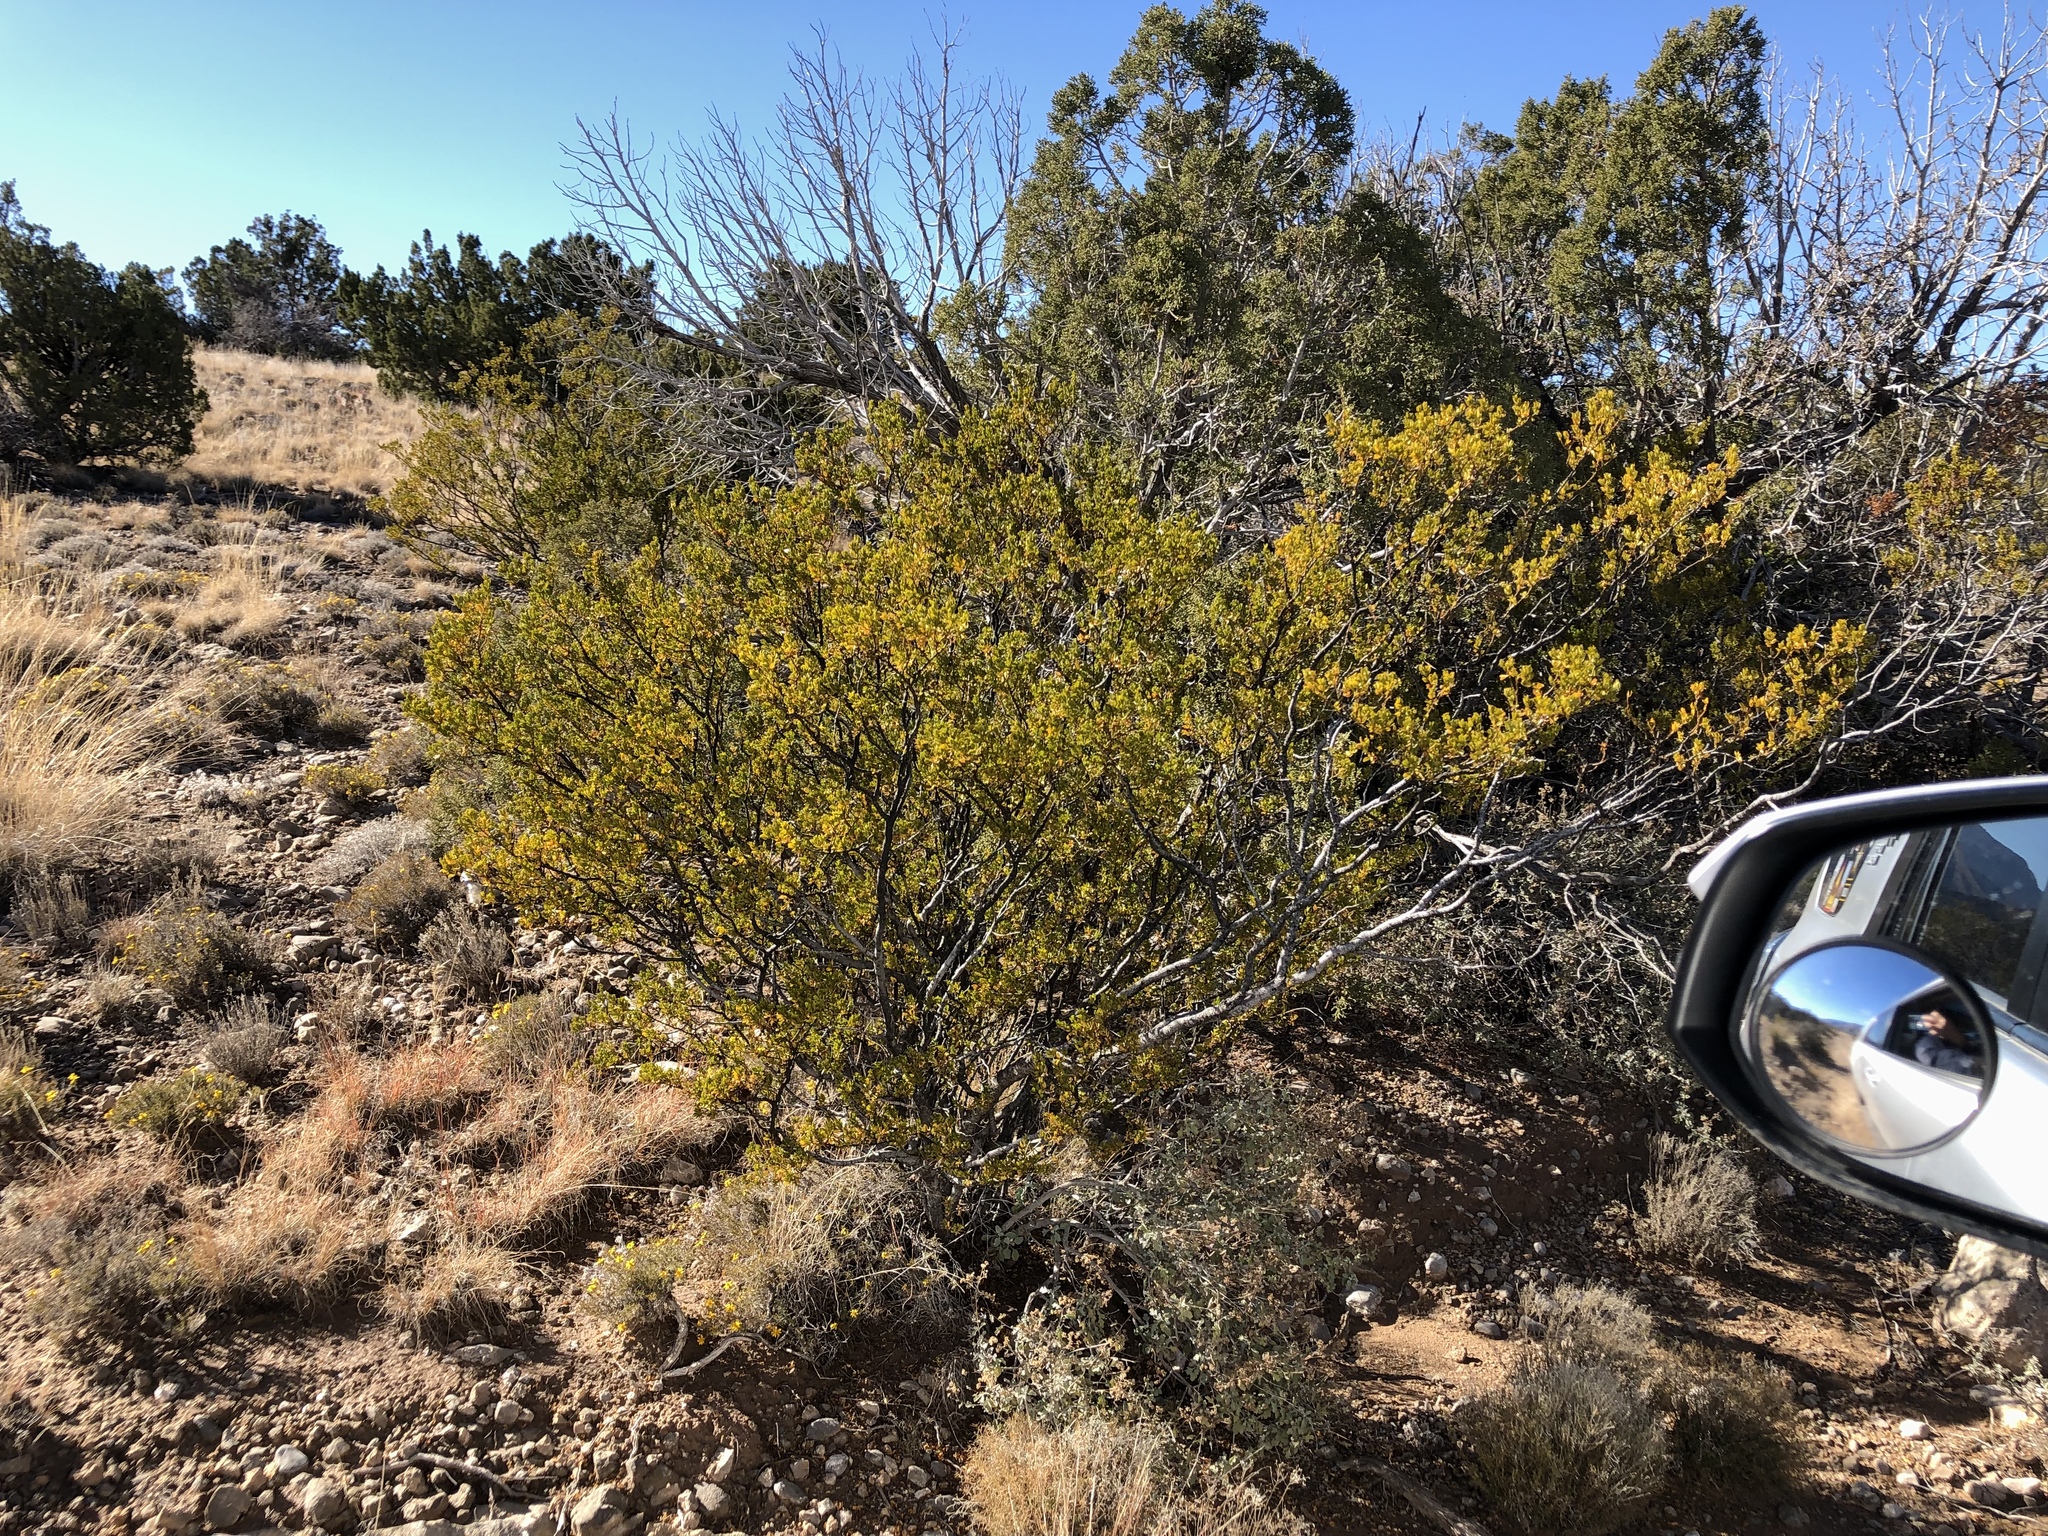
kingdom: Plantae
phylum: Tracheophyta
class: Magnoliopsida
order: Zygophyllales
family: Zygophyllaceae
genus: Larrea
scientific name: Larrea tridentata
